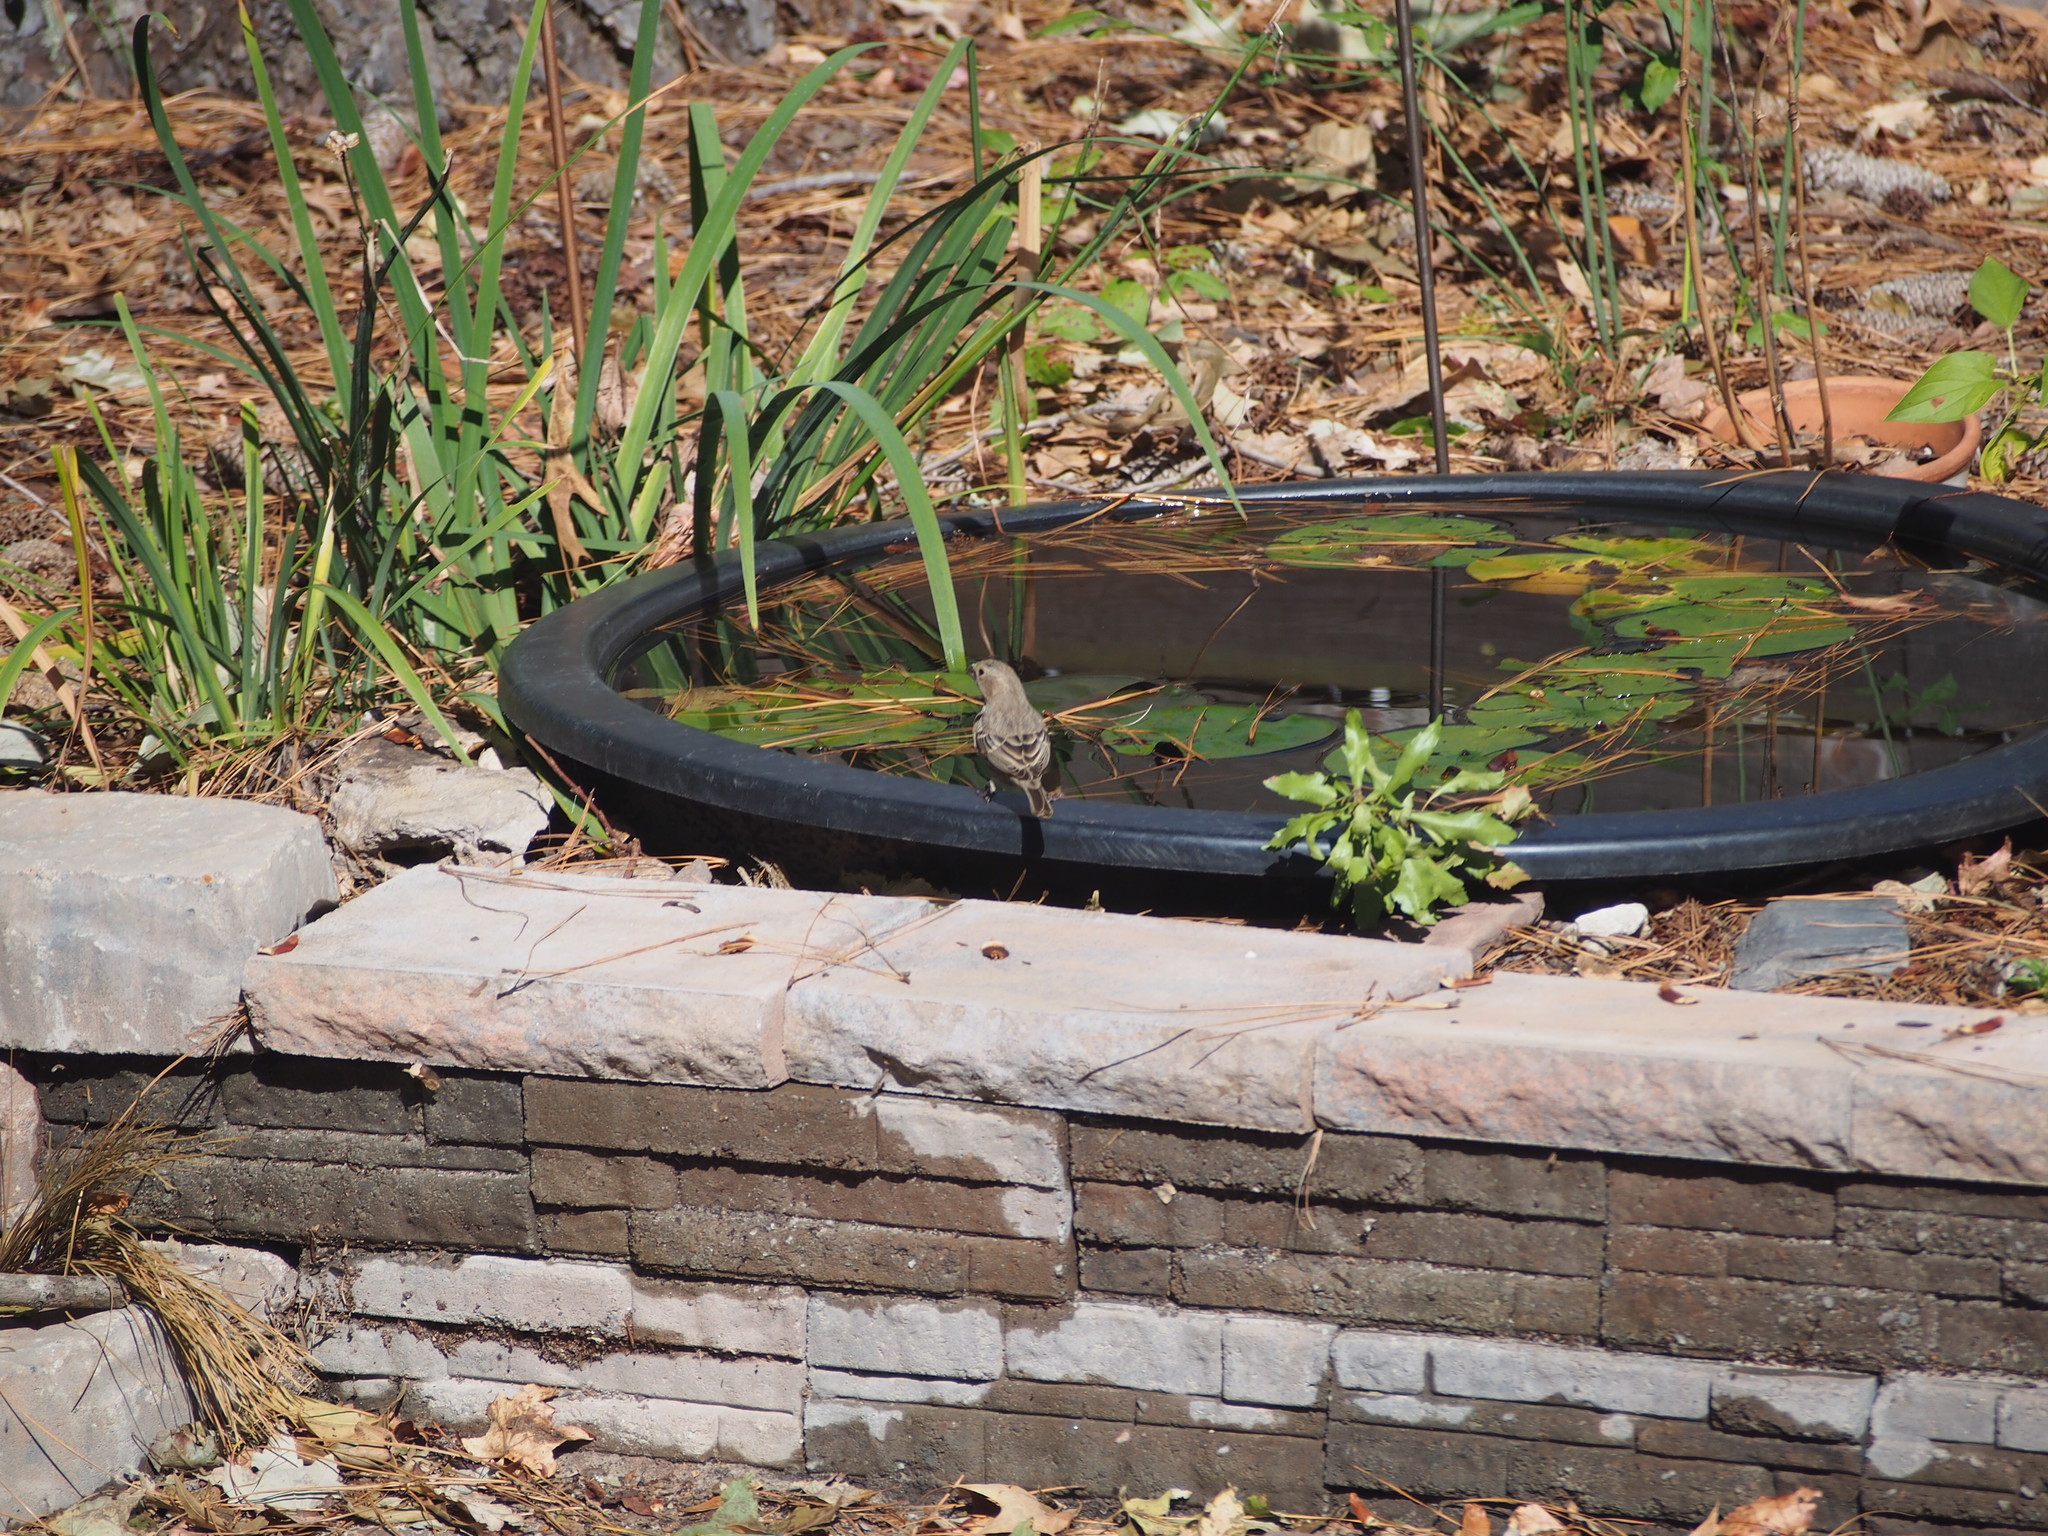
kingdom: Animalia
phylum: Chordata
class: Aves
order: Passeriformes
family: Mimidae
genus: Mimus
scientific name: Mimus polyglottos
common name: Northern mockingbird
